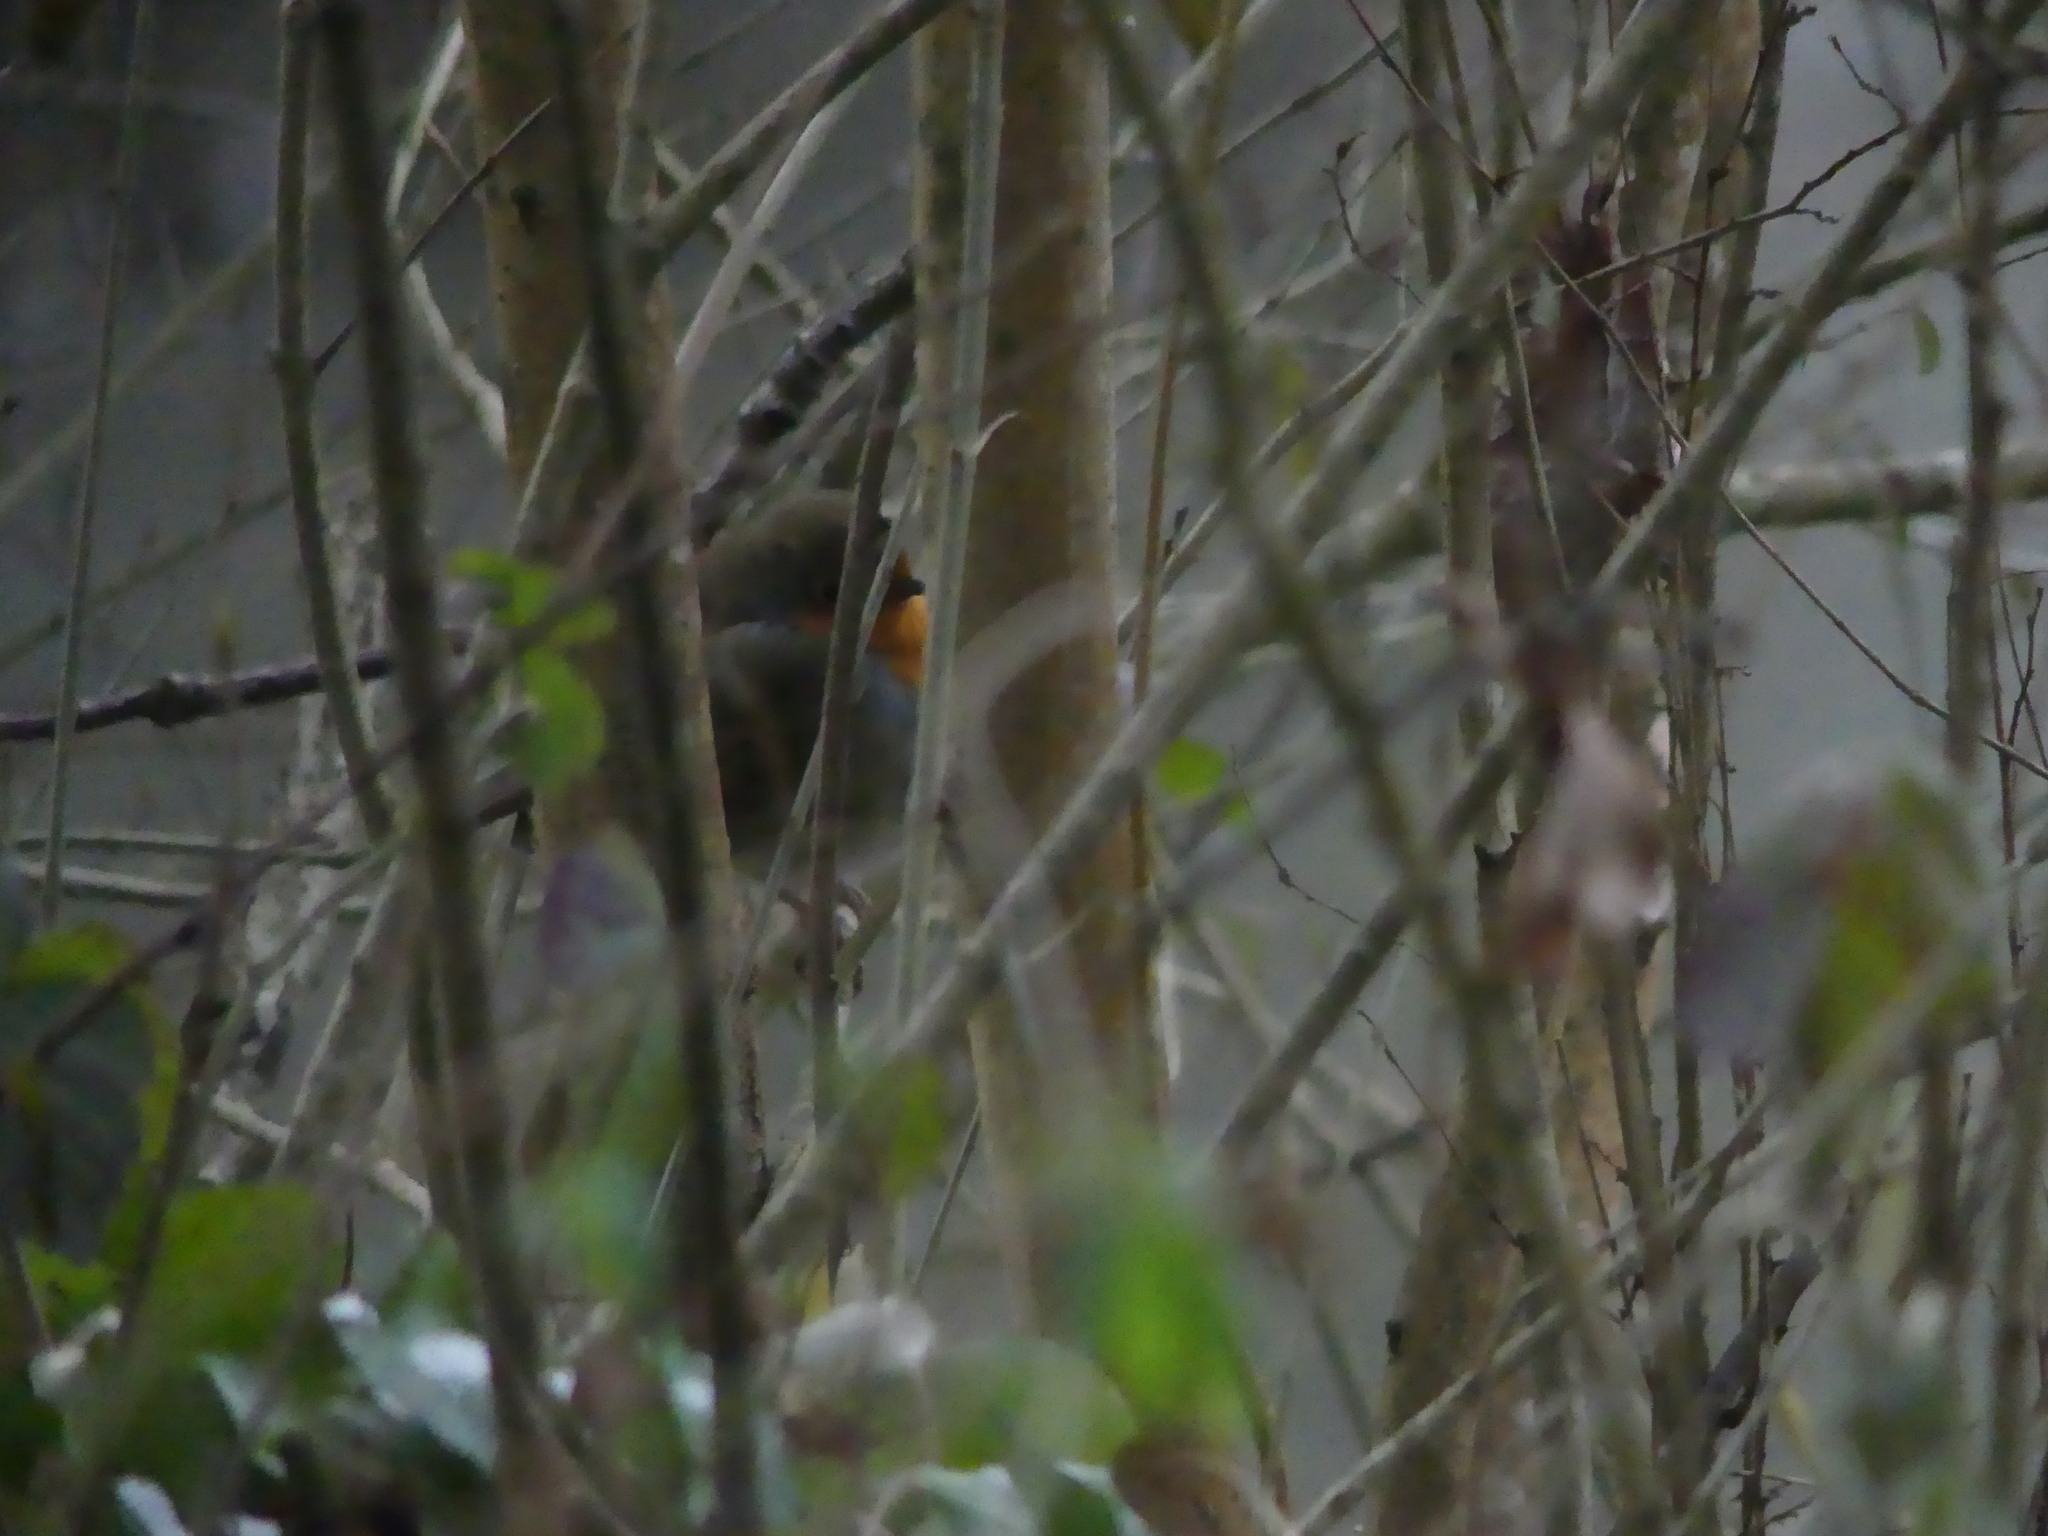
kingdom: Animalia
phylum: Chordata
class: Aves
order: Passeriformes
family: Muscicapidae
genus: Erithacus
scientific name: Erithacus rubecula
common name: European robin
